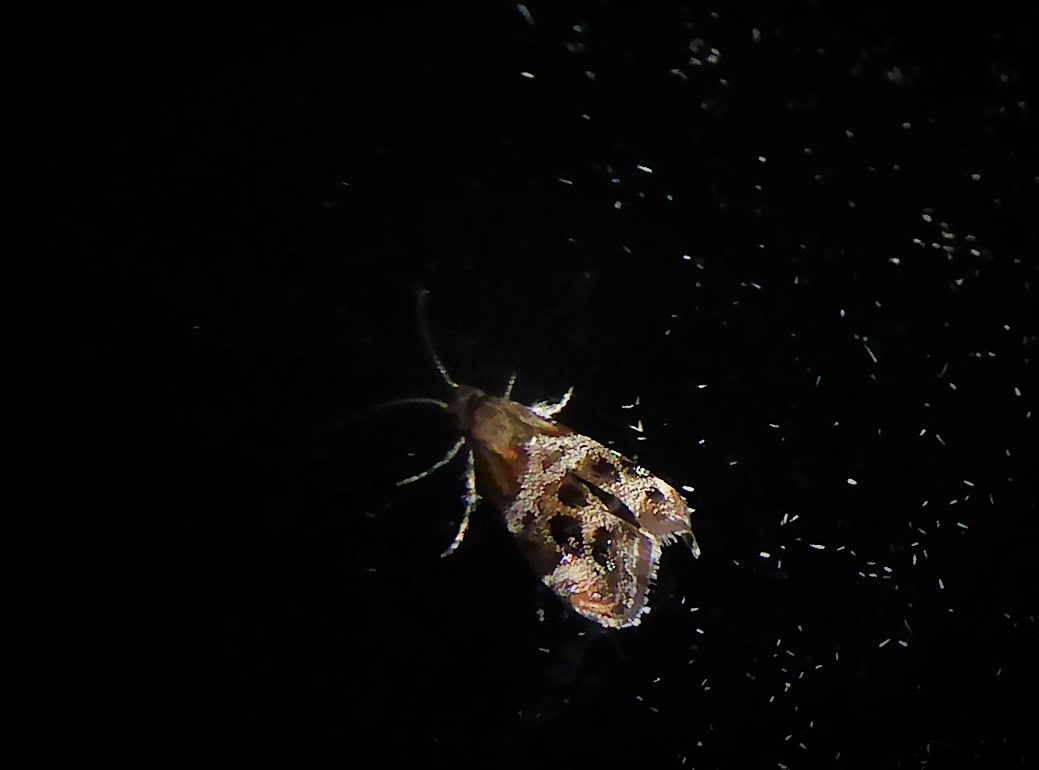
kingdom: Animalia
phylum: Arthropoda
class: Insecta
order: Lepidoptera
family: Choreutidae
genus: Tebenna
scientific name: Tebenna micalis
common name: Vagrant twitcher
